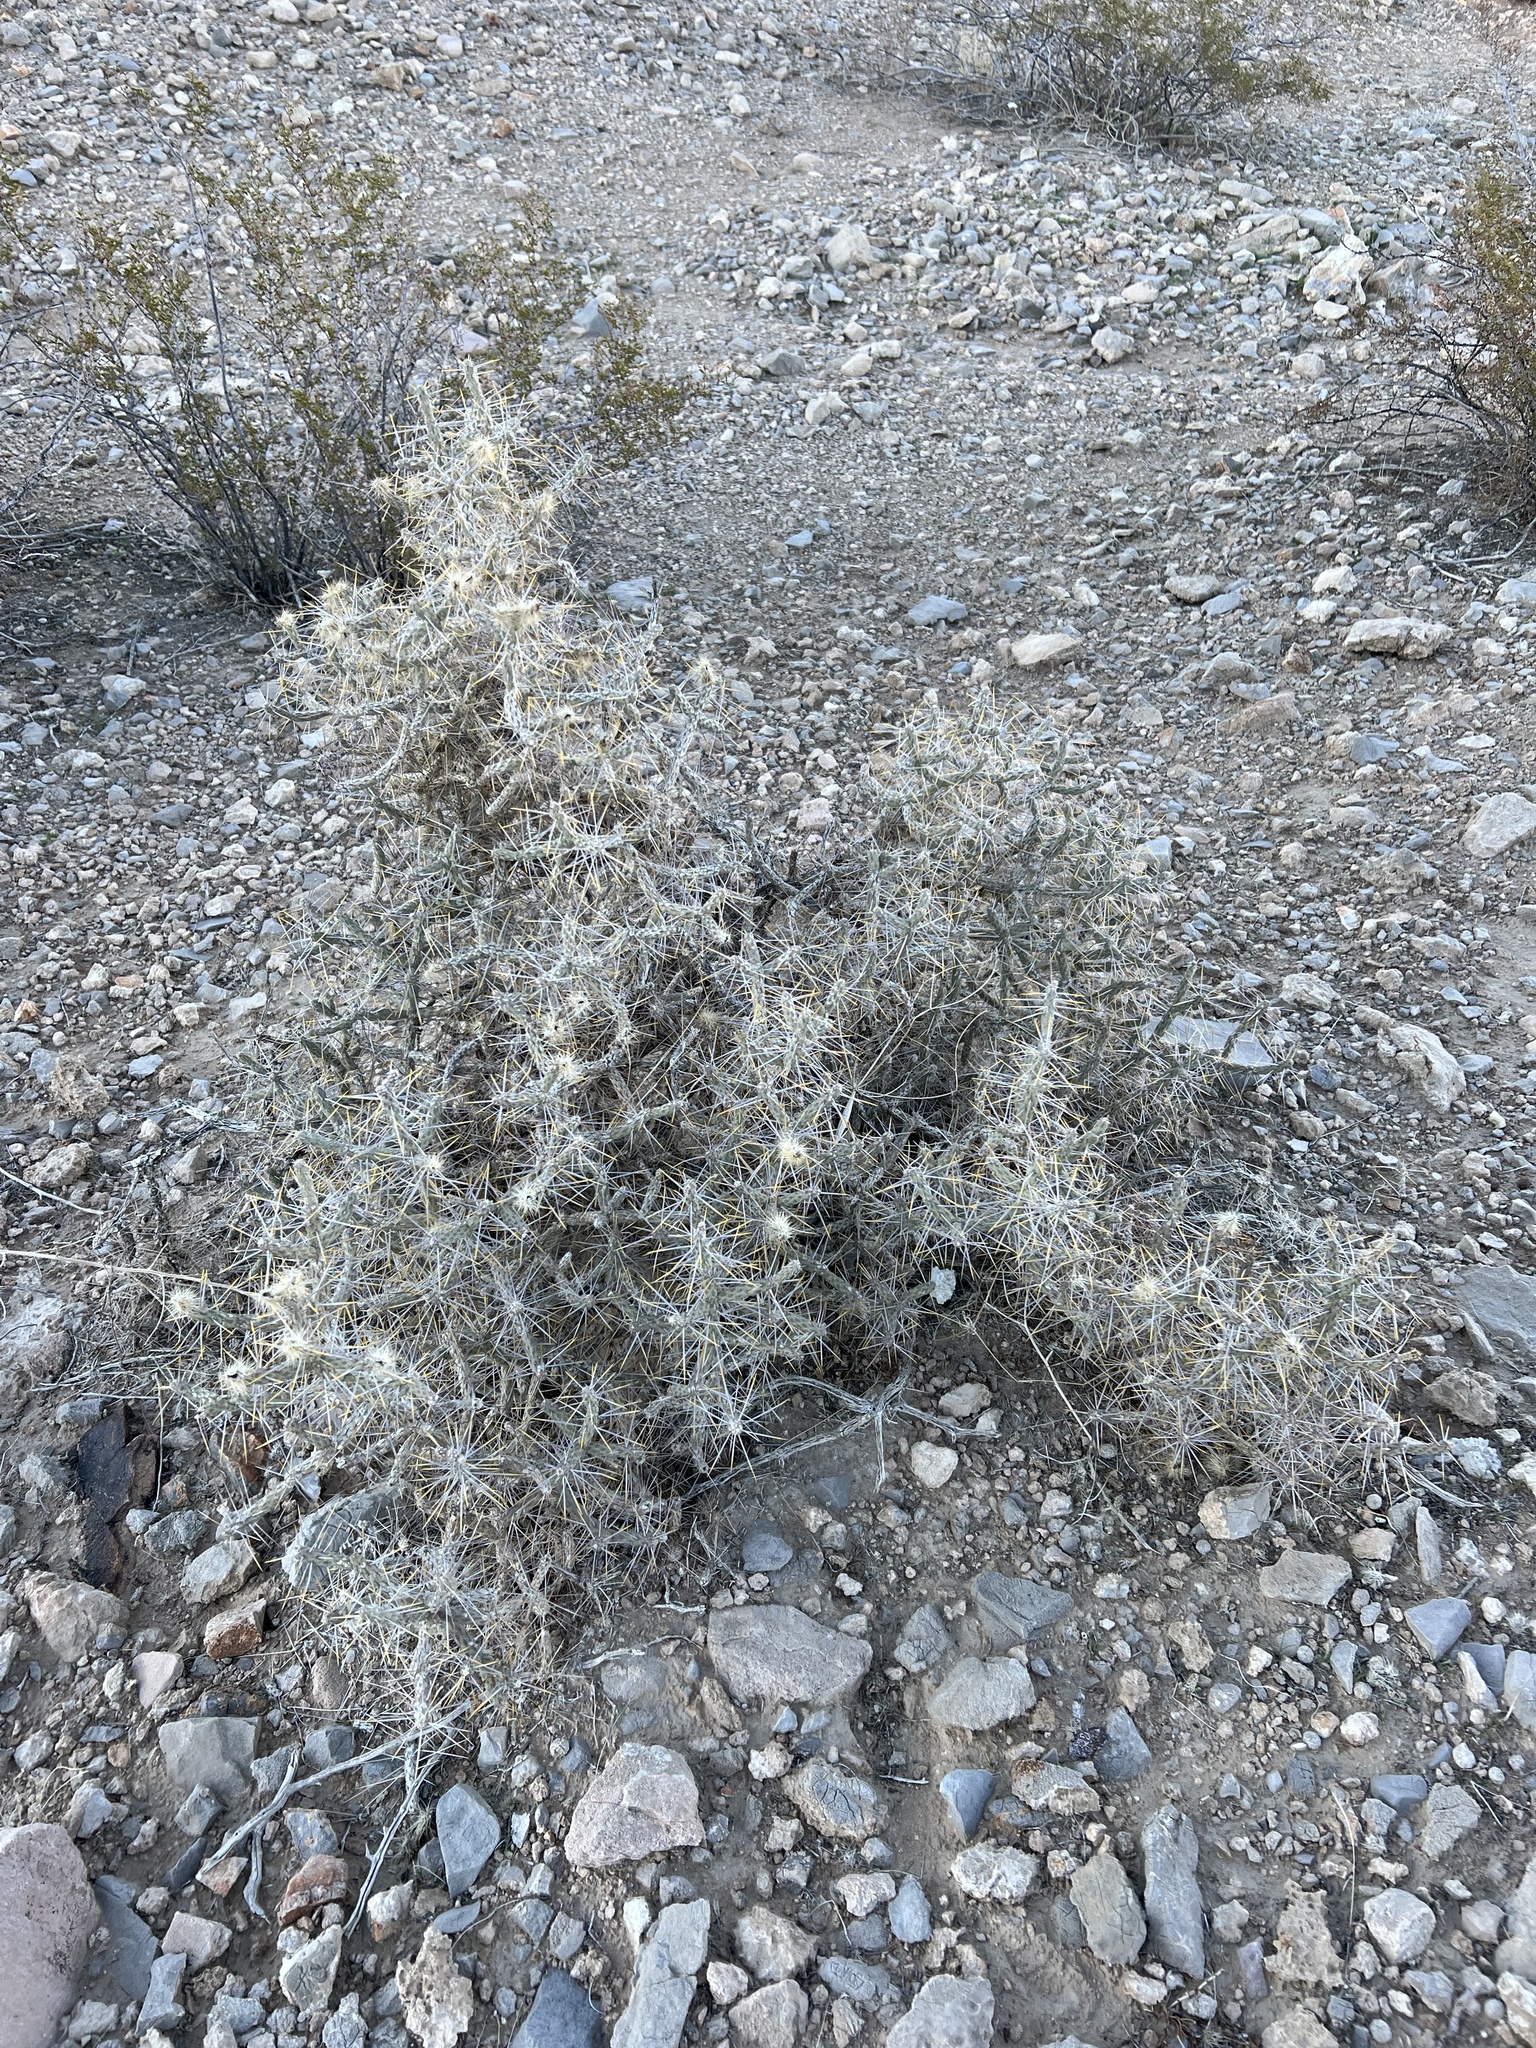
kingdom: Plantae
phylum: Tracheophyta
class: Magnoliopsida
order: Caryophyllales
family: Cactaceae
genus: Cylindropuntia
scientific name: Cylindropuntia ramosissima
